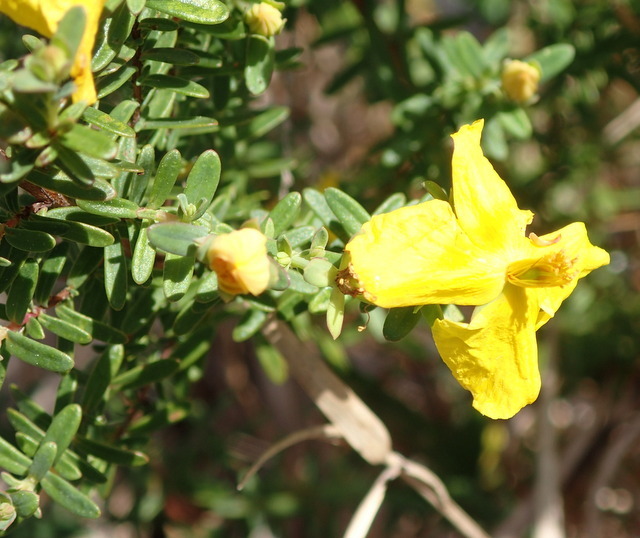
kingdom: Plantae
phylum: Tracheophyta
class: Magnoliopsida
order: Malpighiales
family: Hypericaceae
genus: Hypericum
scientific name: Hypericum microsepalum
